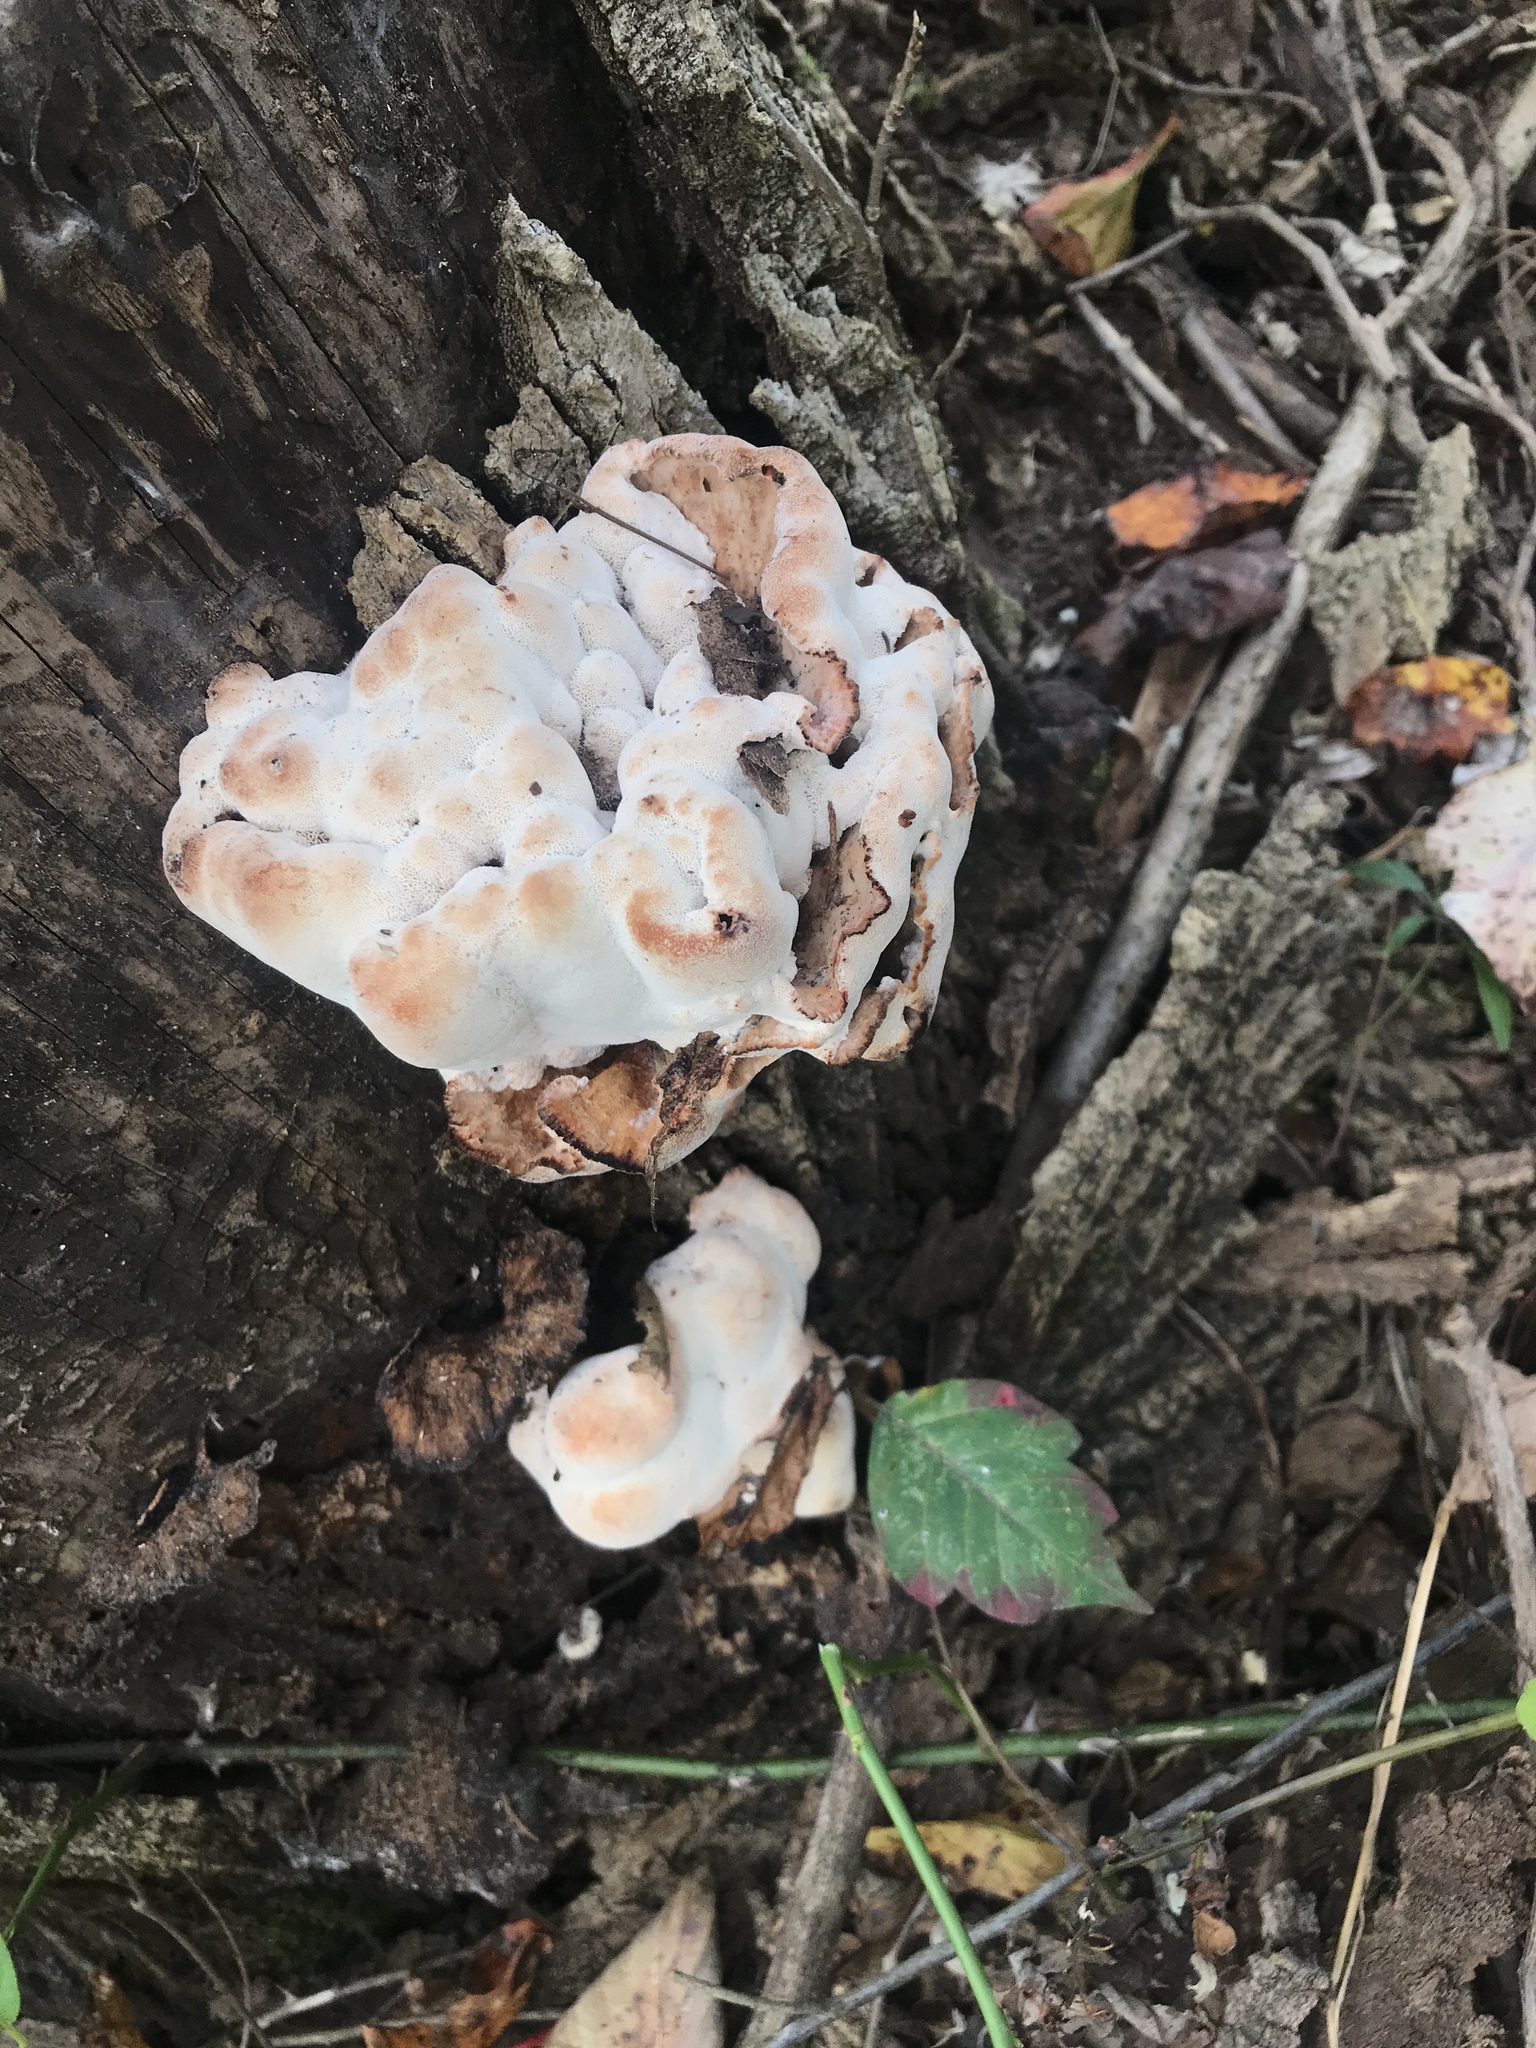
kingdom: Fungi
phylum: Basidiomycota
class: Agaricomycetes
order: Polyporales
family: Podoscyphaceae
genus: Abortiporus
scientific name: Abortiporus biennis
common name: Blushing rosette
